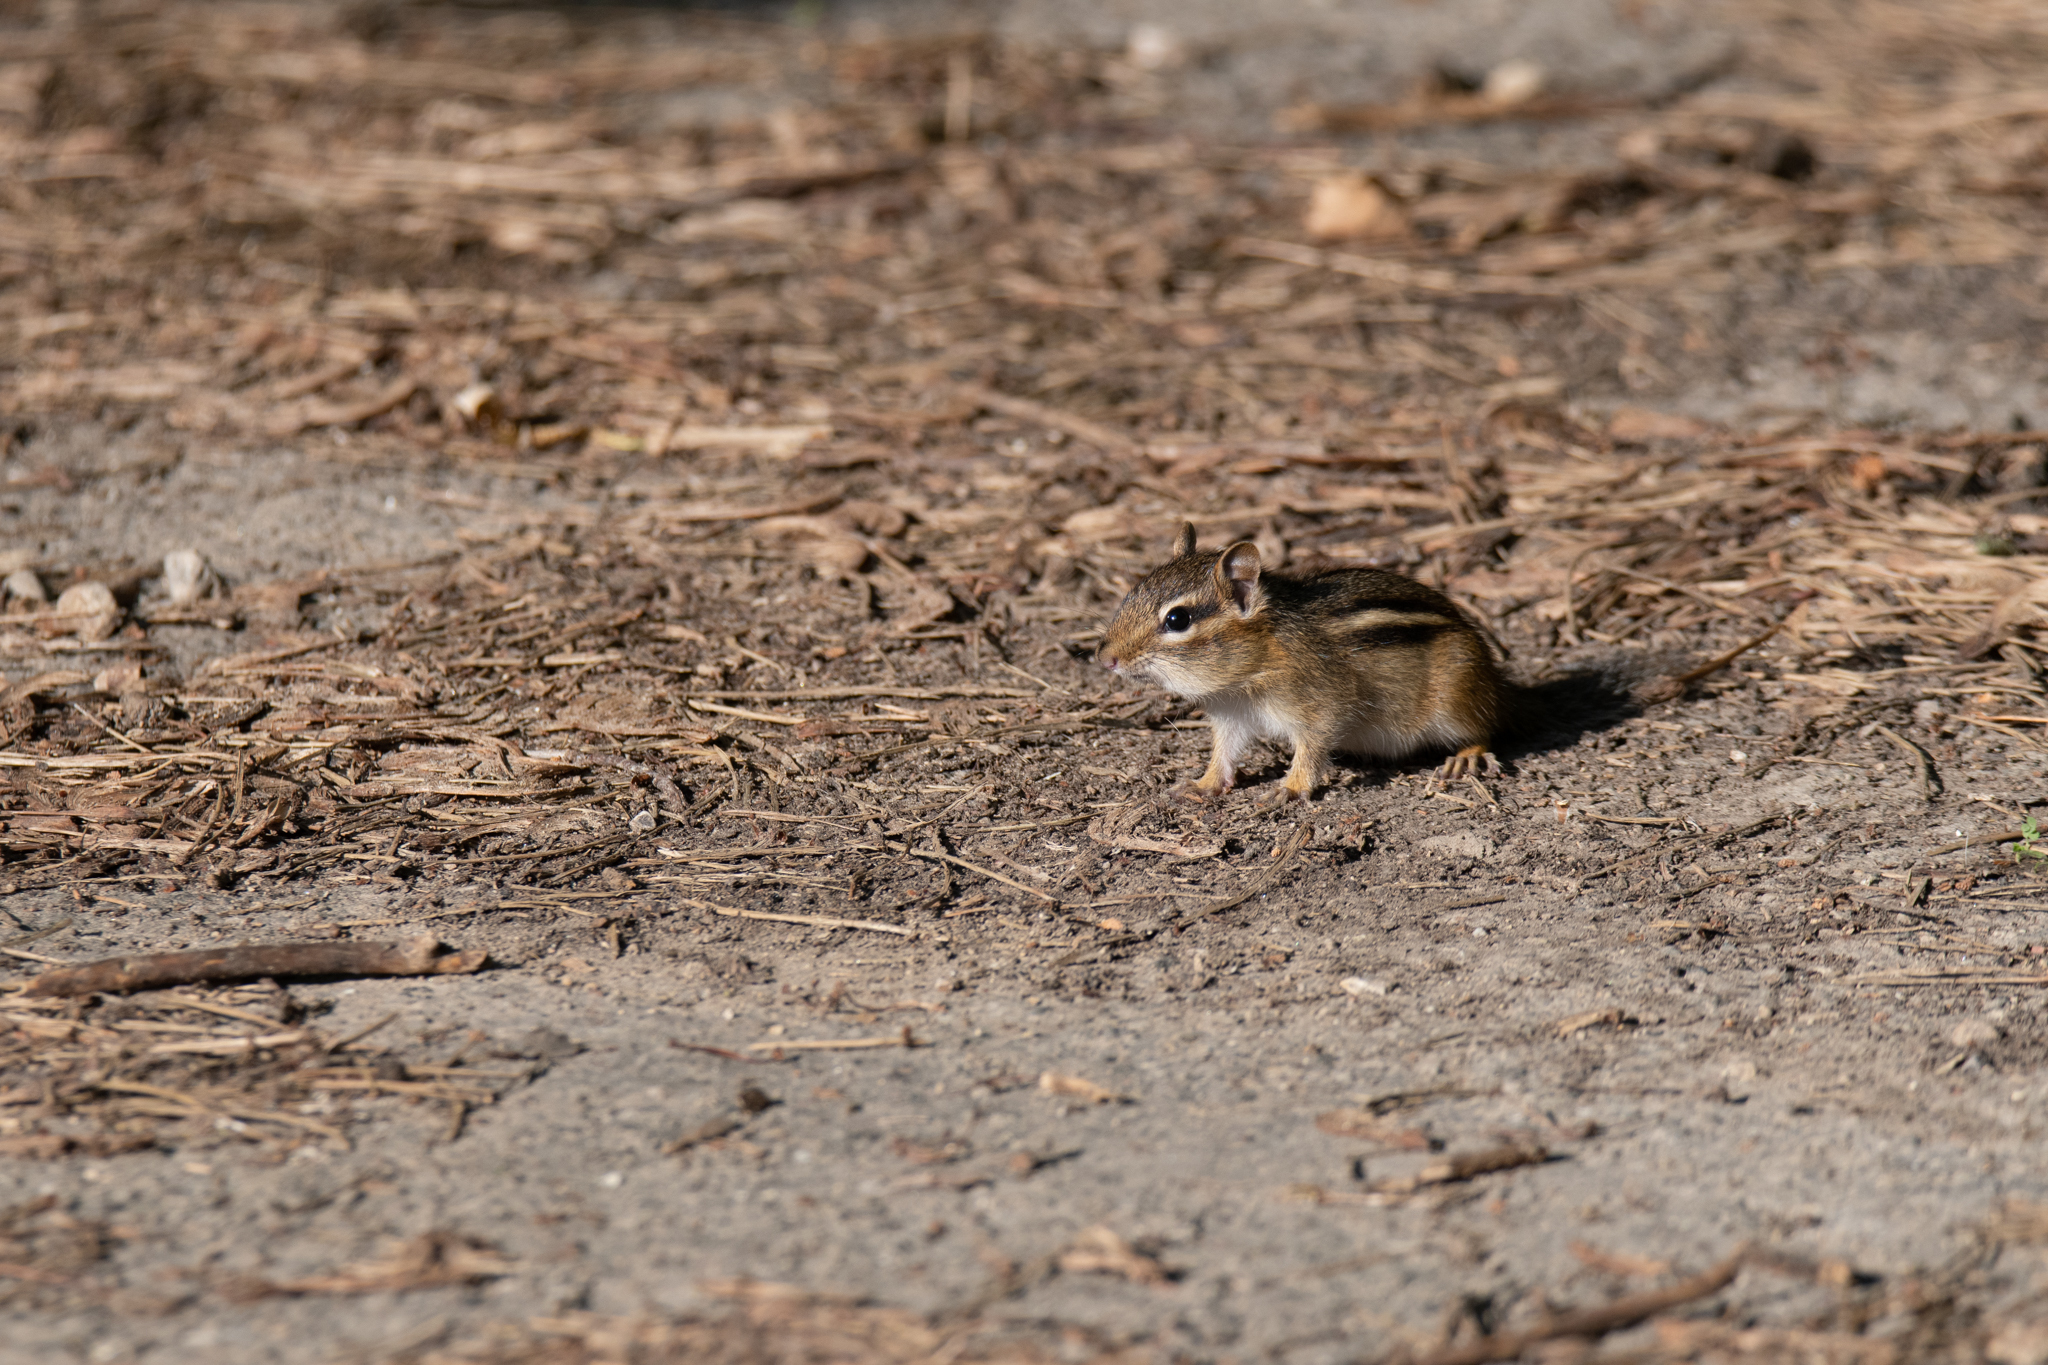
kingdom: Animalia
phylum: Chordata
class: Mammalia
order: Rodentia
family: Sciuridae
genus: Tamias
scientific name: Tamias striatus
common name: Eastern chipmunk
